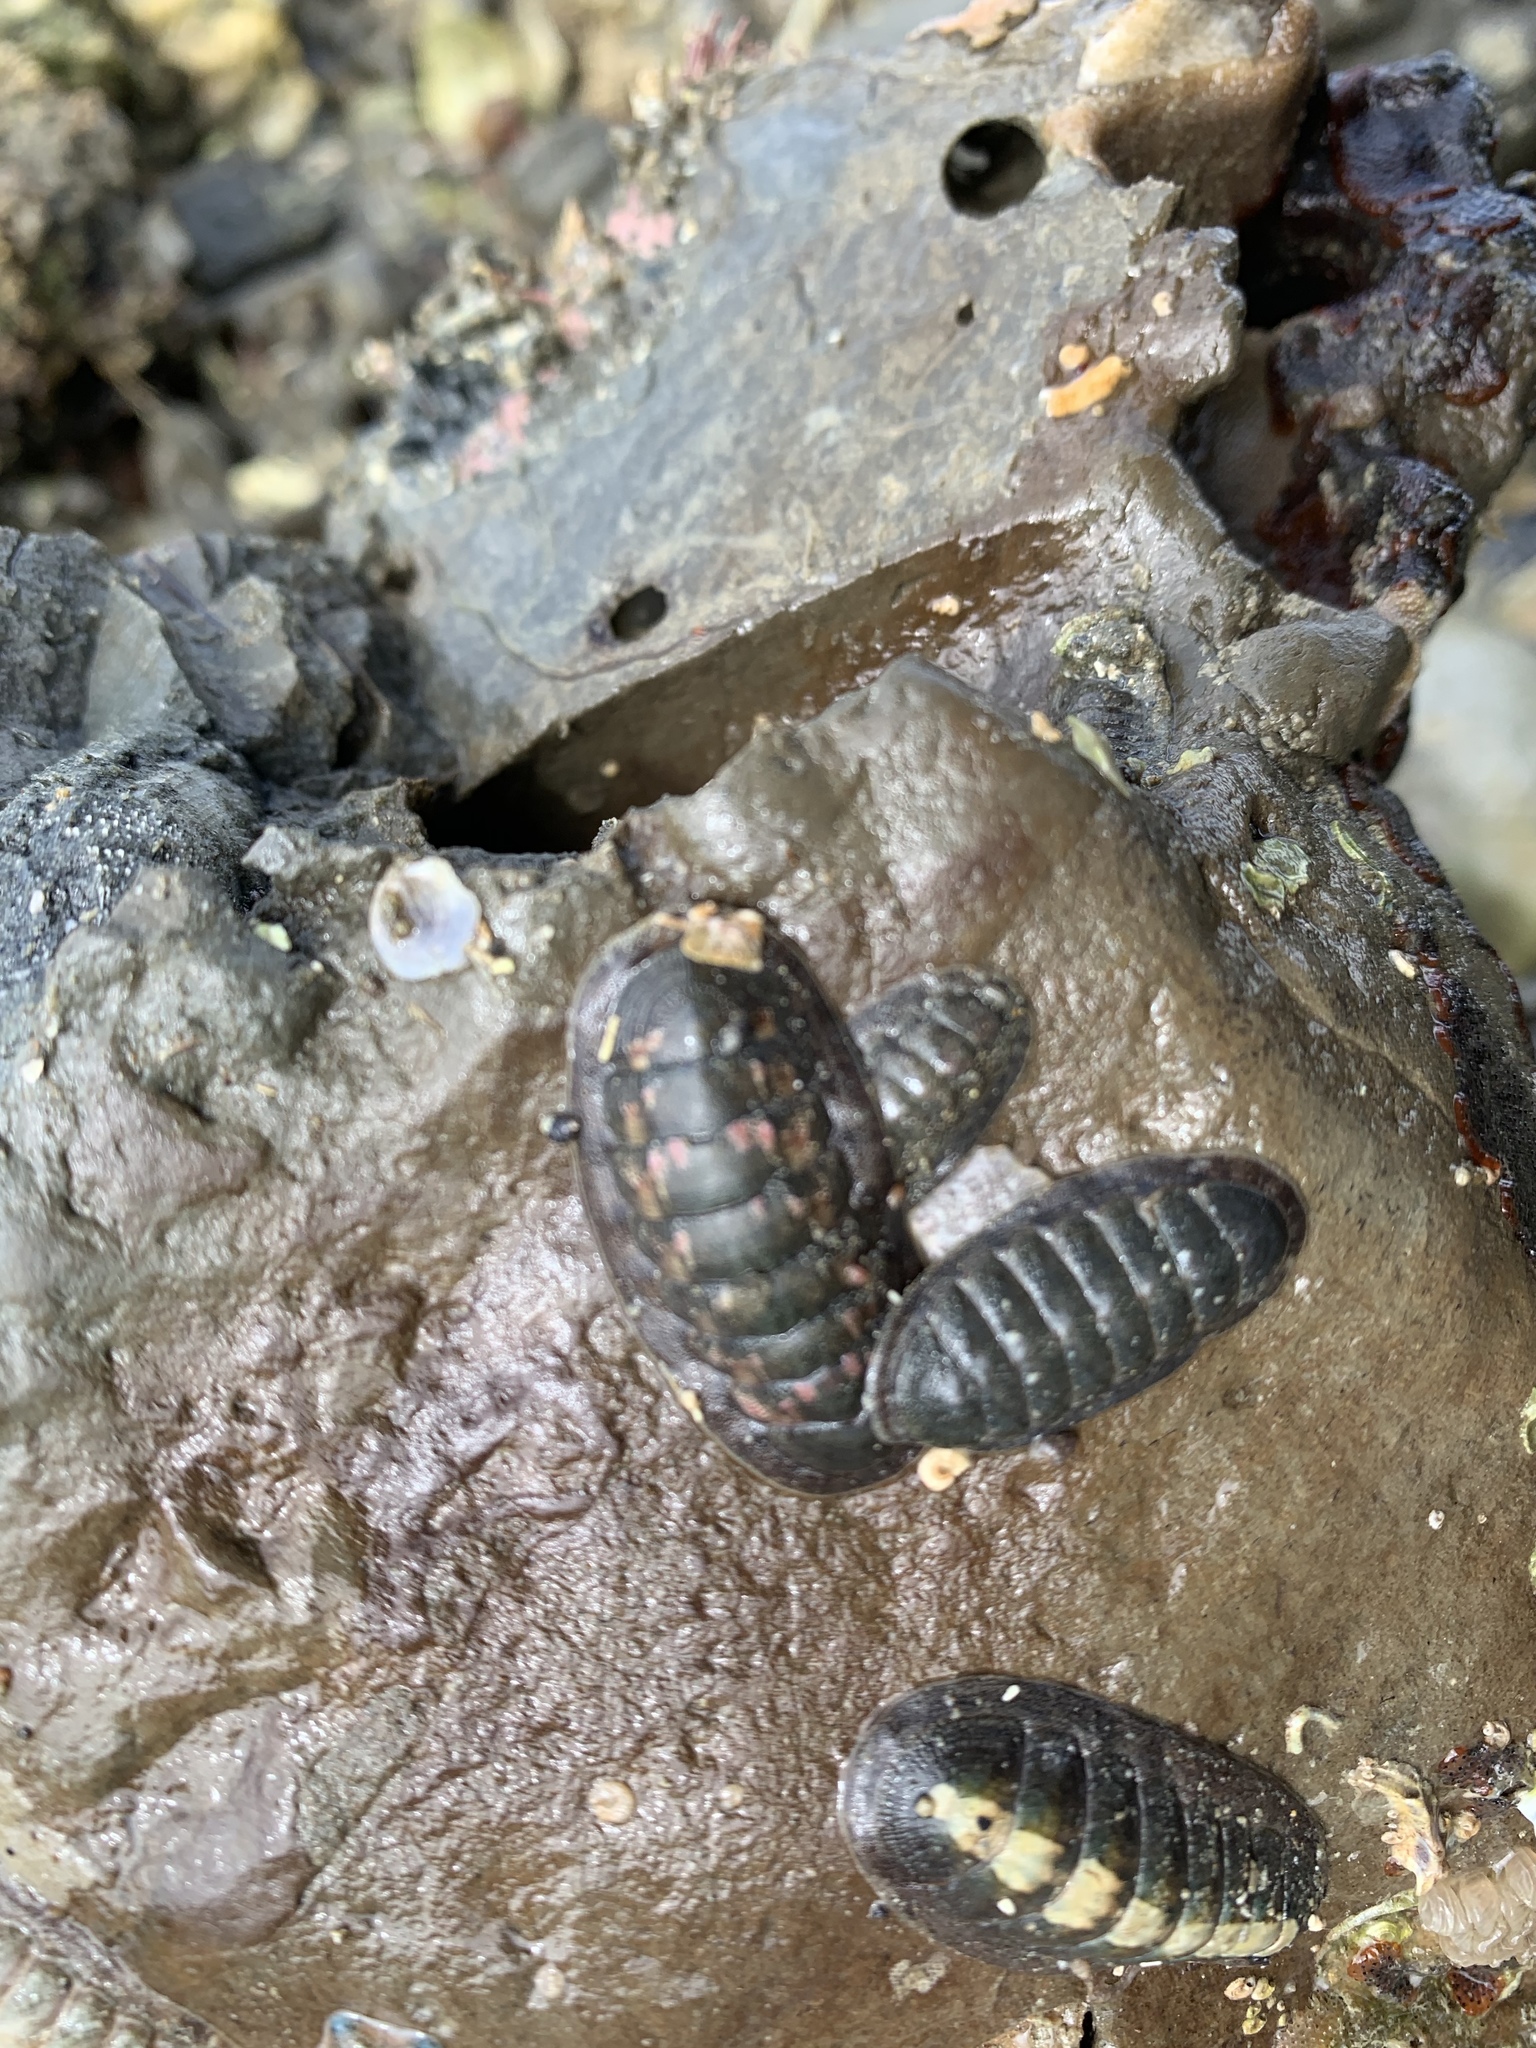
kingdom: Animalia
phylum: Mollusca
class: Polyplacophora
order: Chitonida
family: Ischnochitonidae
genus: Ischnochiton
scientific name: Ischnochiton maorianus
